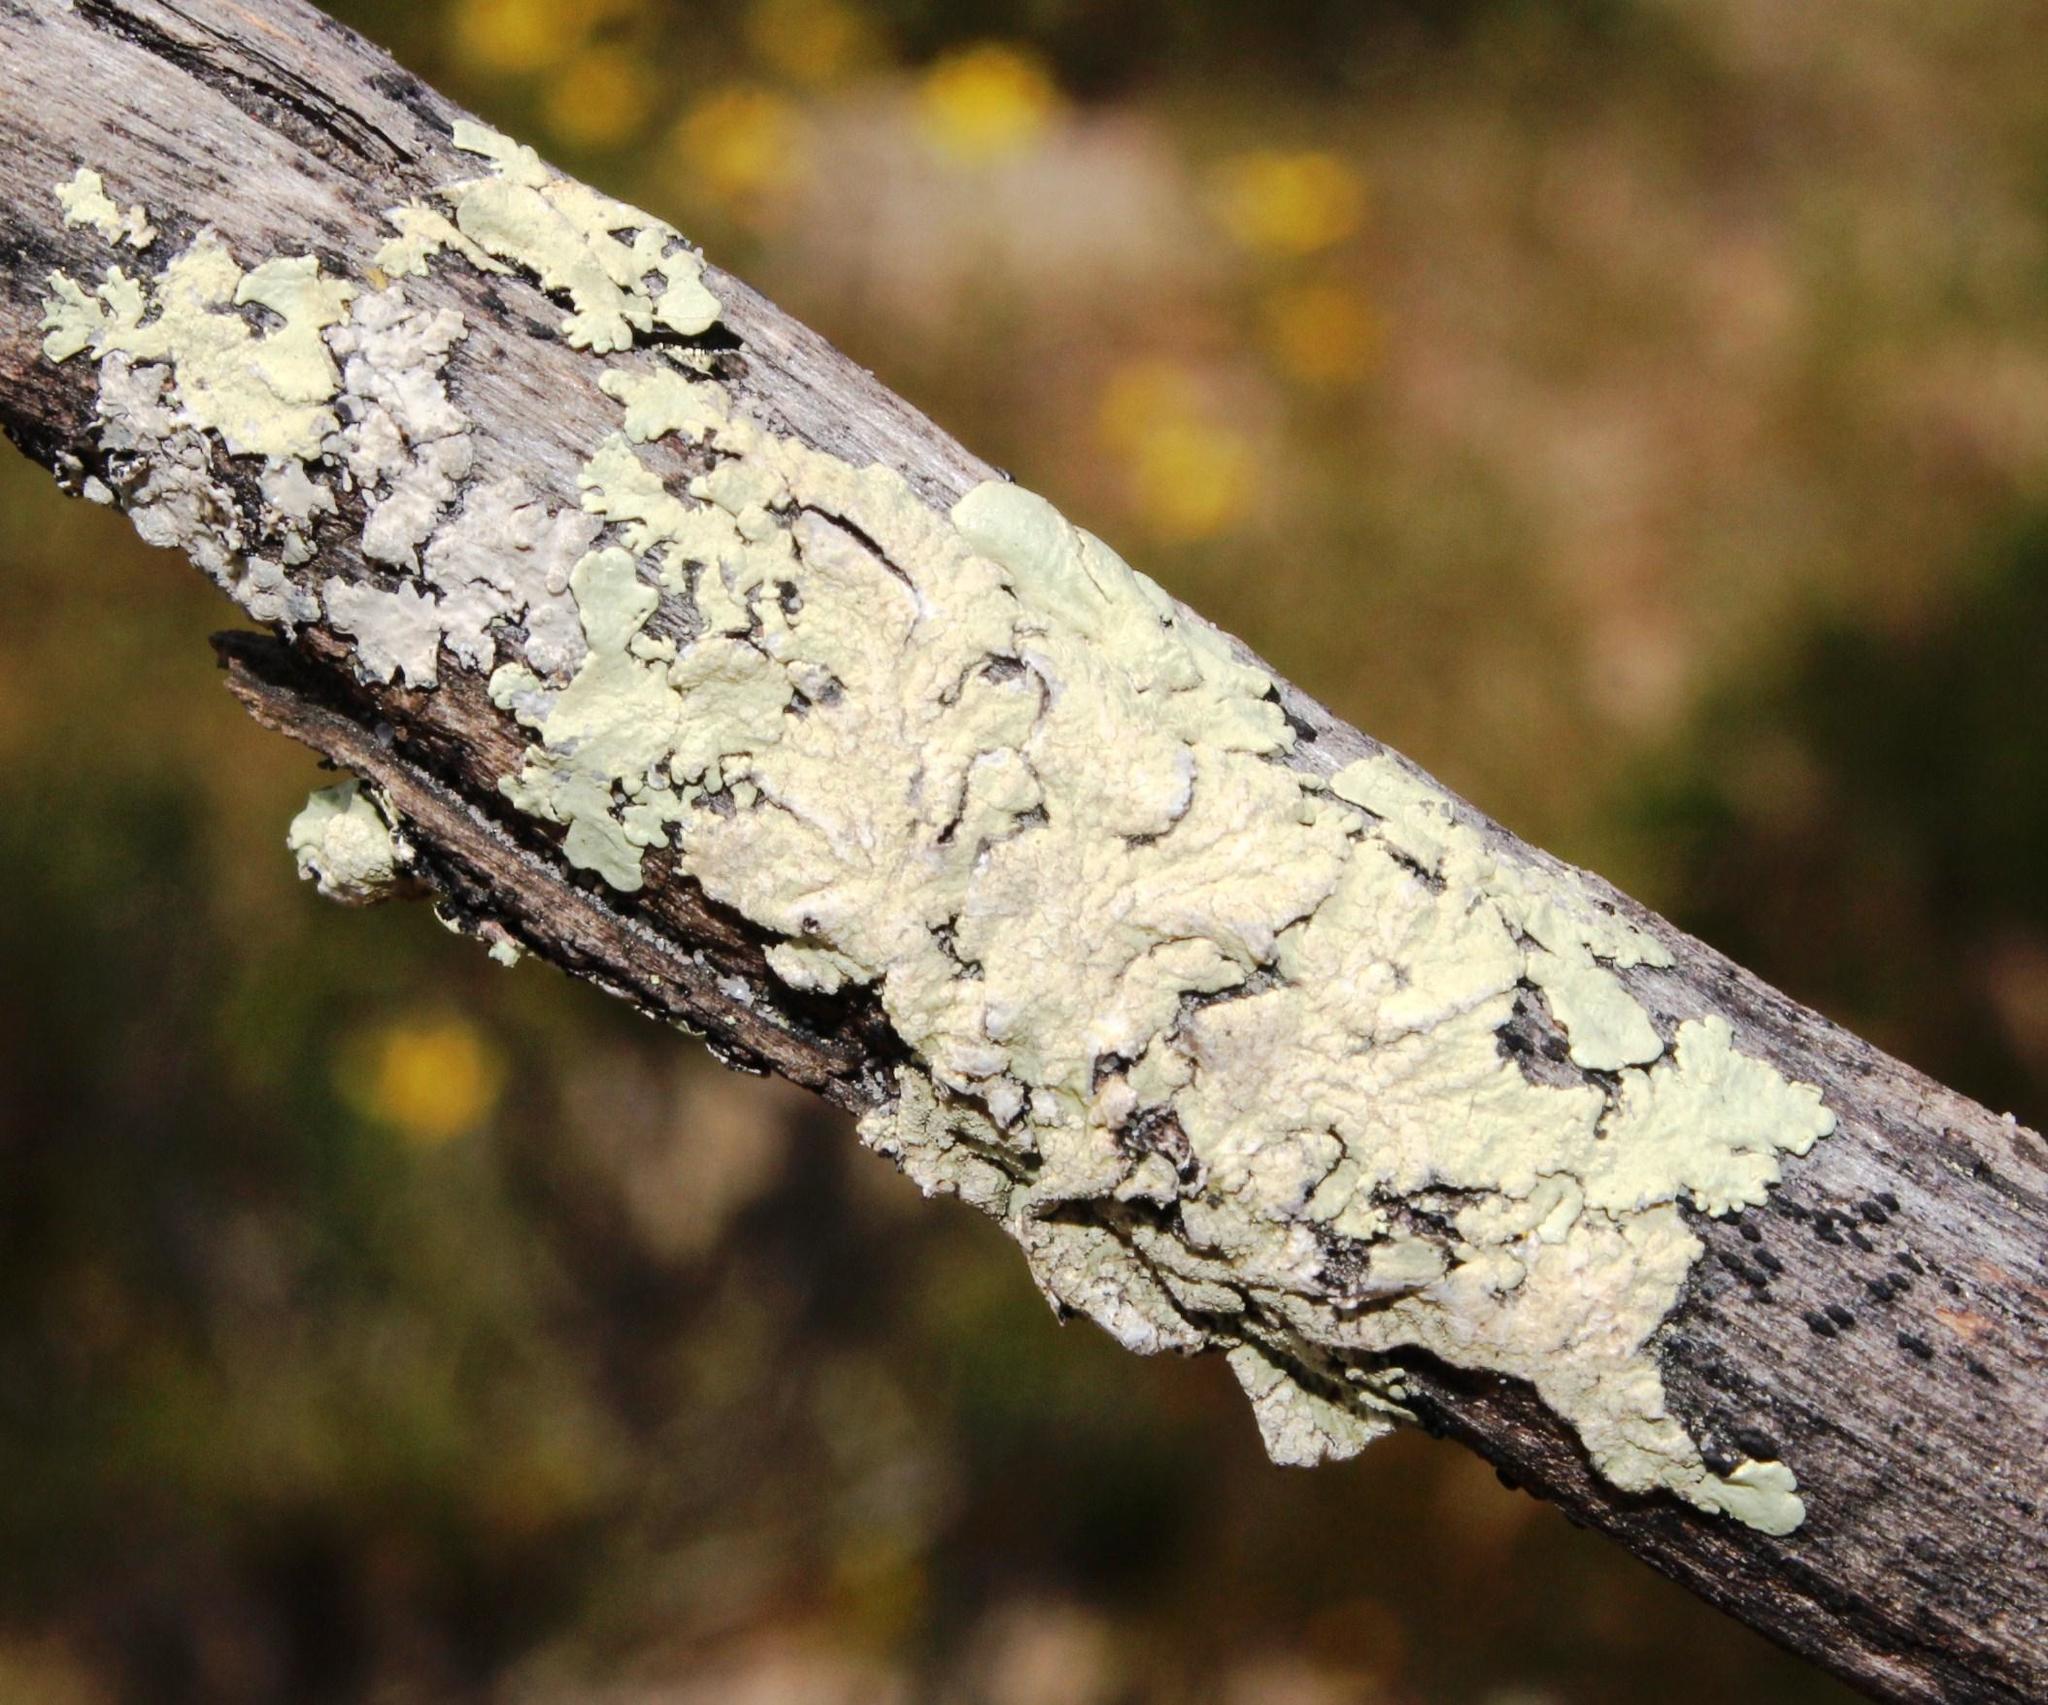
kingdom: Fungi
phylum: Ascomycota
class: Lecanoromycetes
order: Lecanorales
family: Parmeliaceae
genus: Flavoparmelia
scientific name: Flavoparmelia soredians
